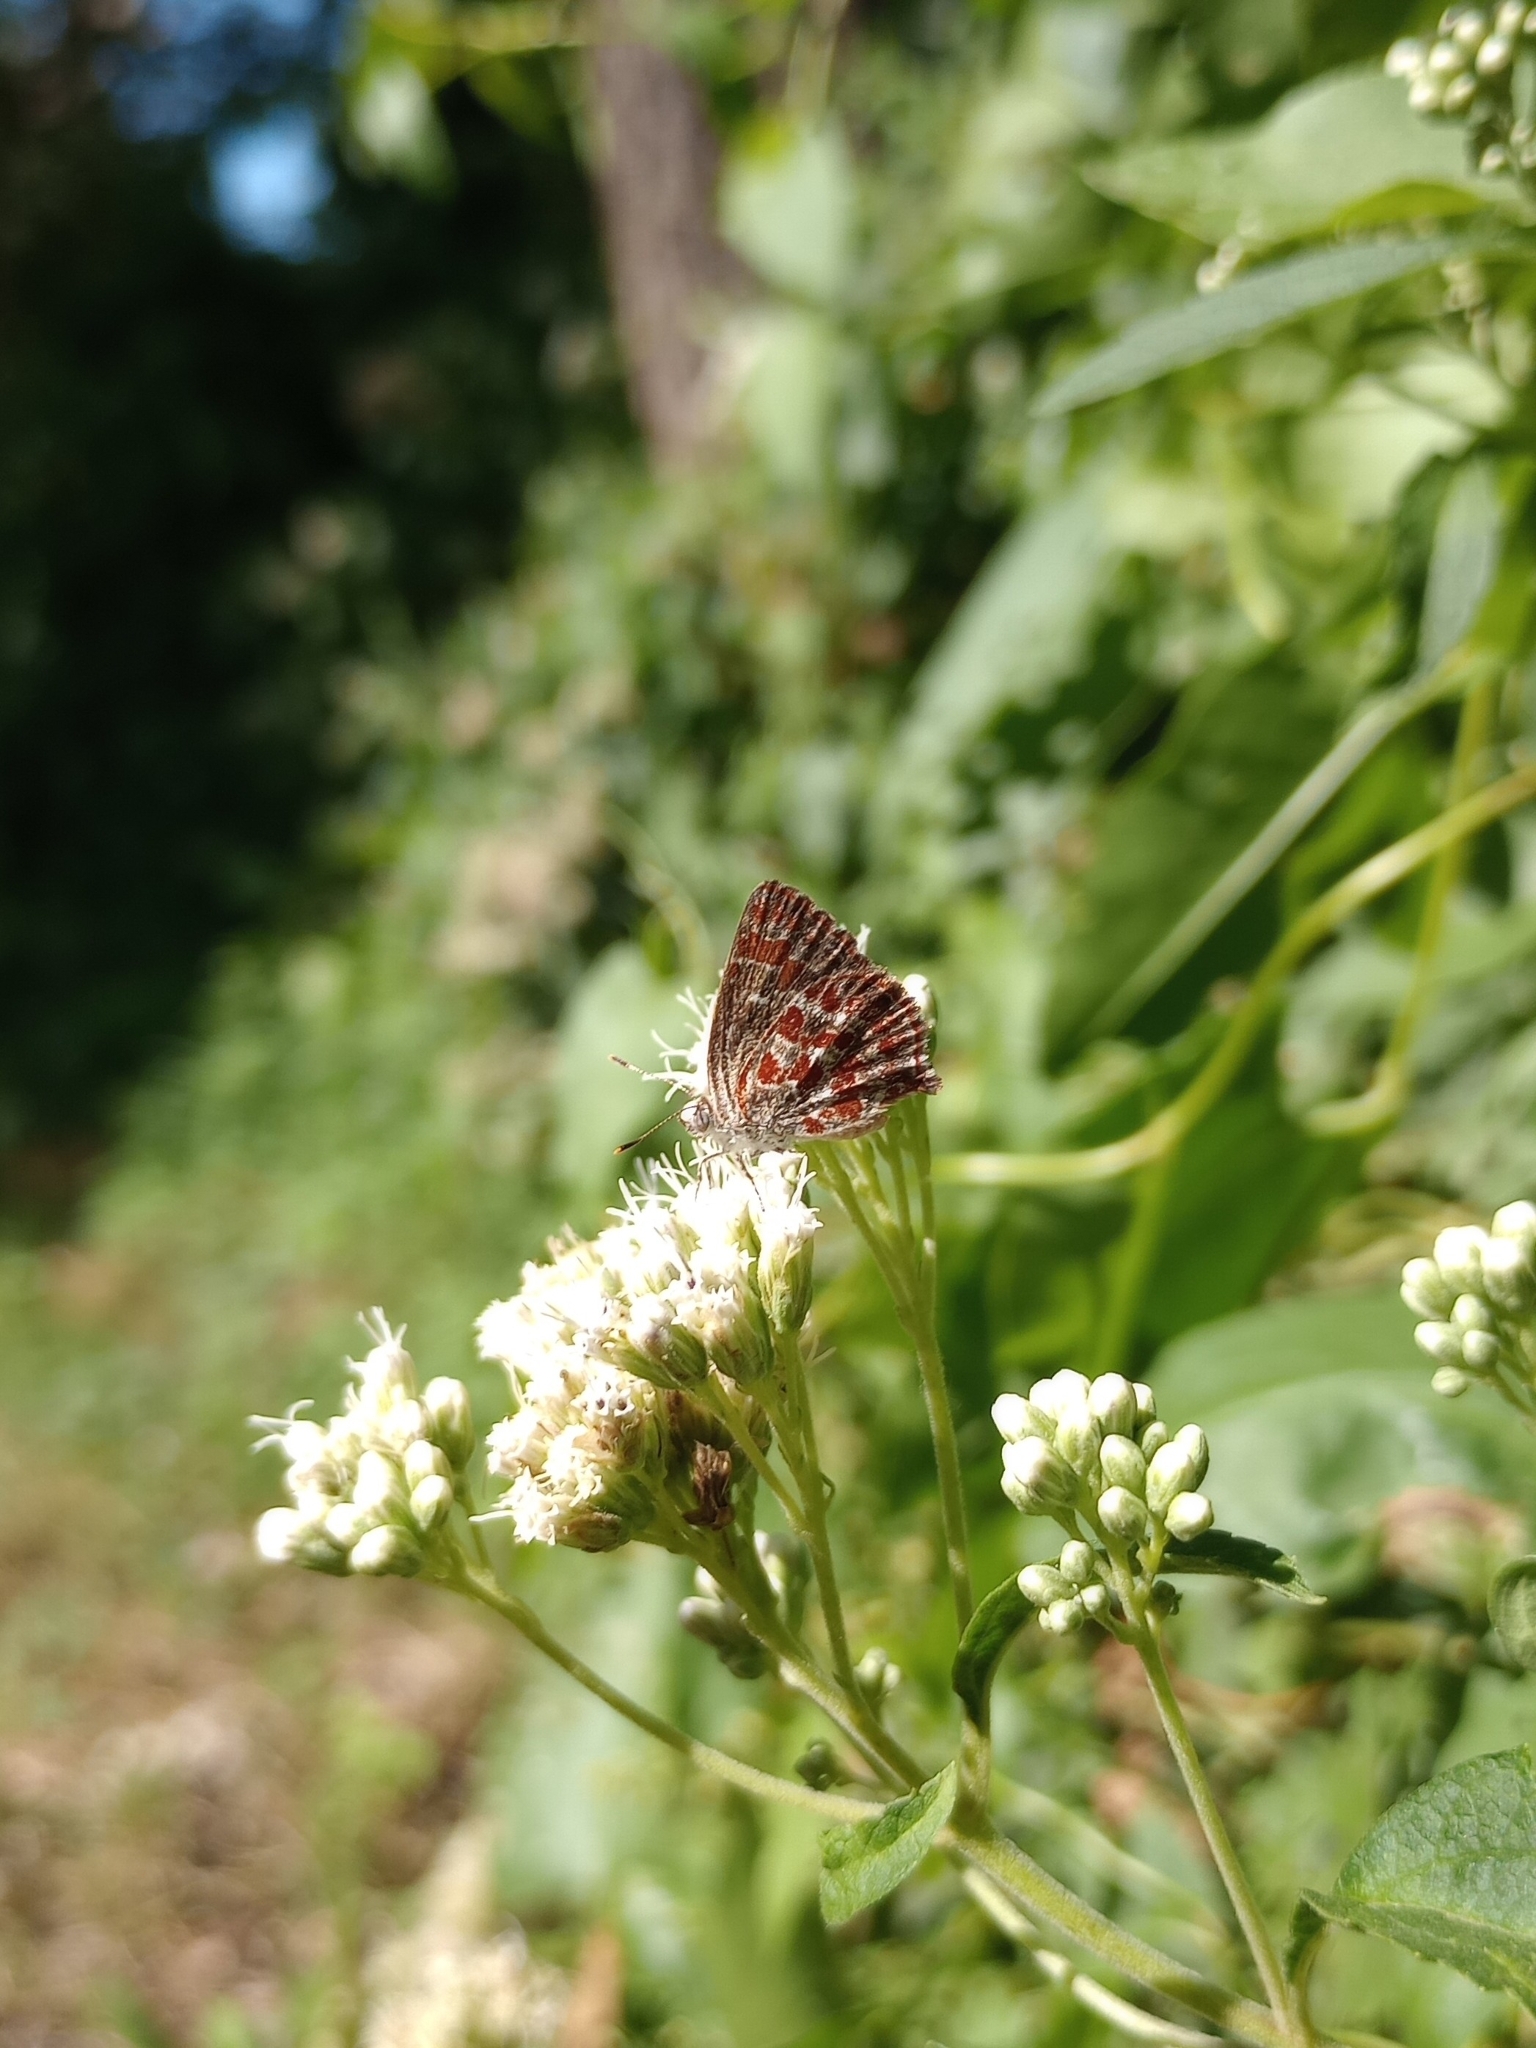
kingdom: Animalia
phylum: Arthropoda
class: Insecta
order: Lepidoptera
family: Lycaenidae
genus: Ministrymon
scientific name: Ministrymon
